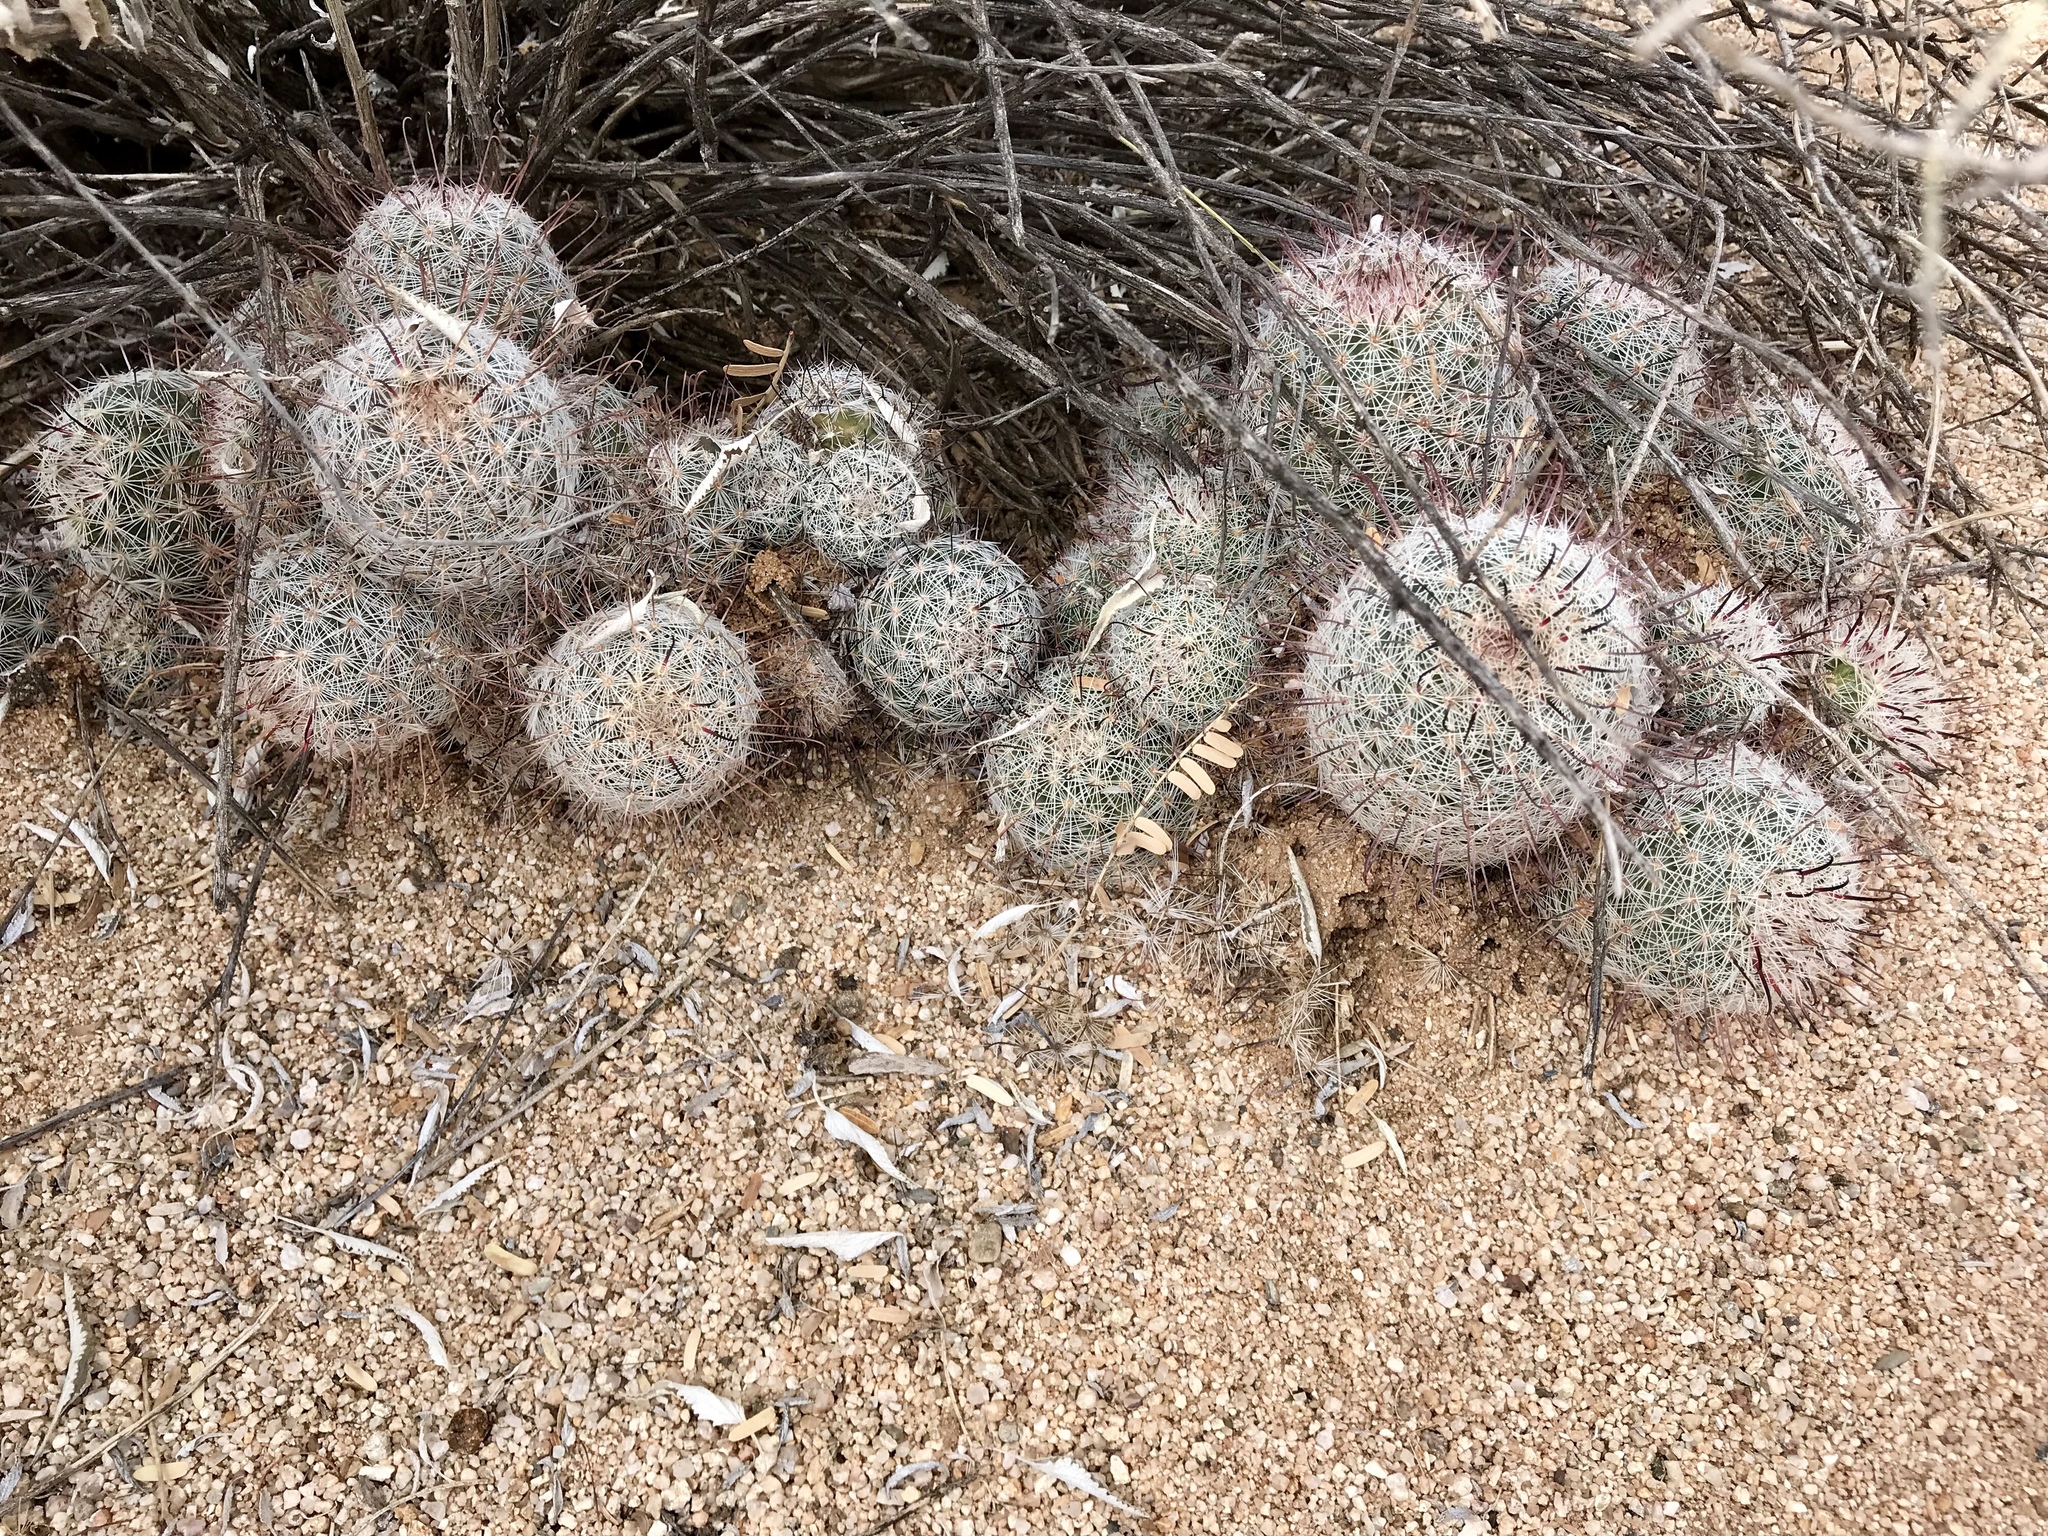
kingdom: Plantae
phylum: Tracheophyta
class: Magnoliopsida
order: Caryophyllales
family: Cactaceae
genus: Cochemiea
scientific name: Cochemiea grahamii
